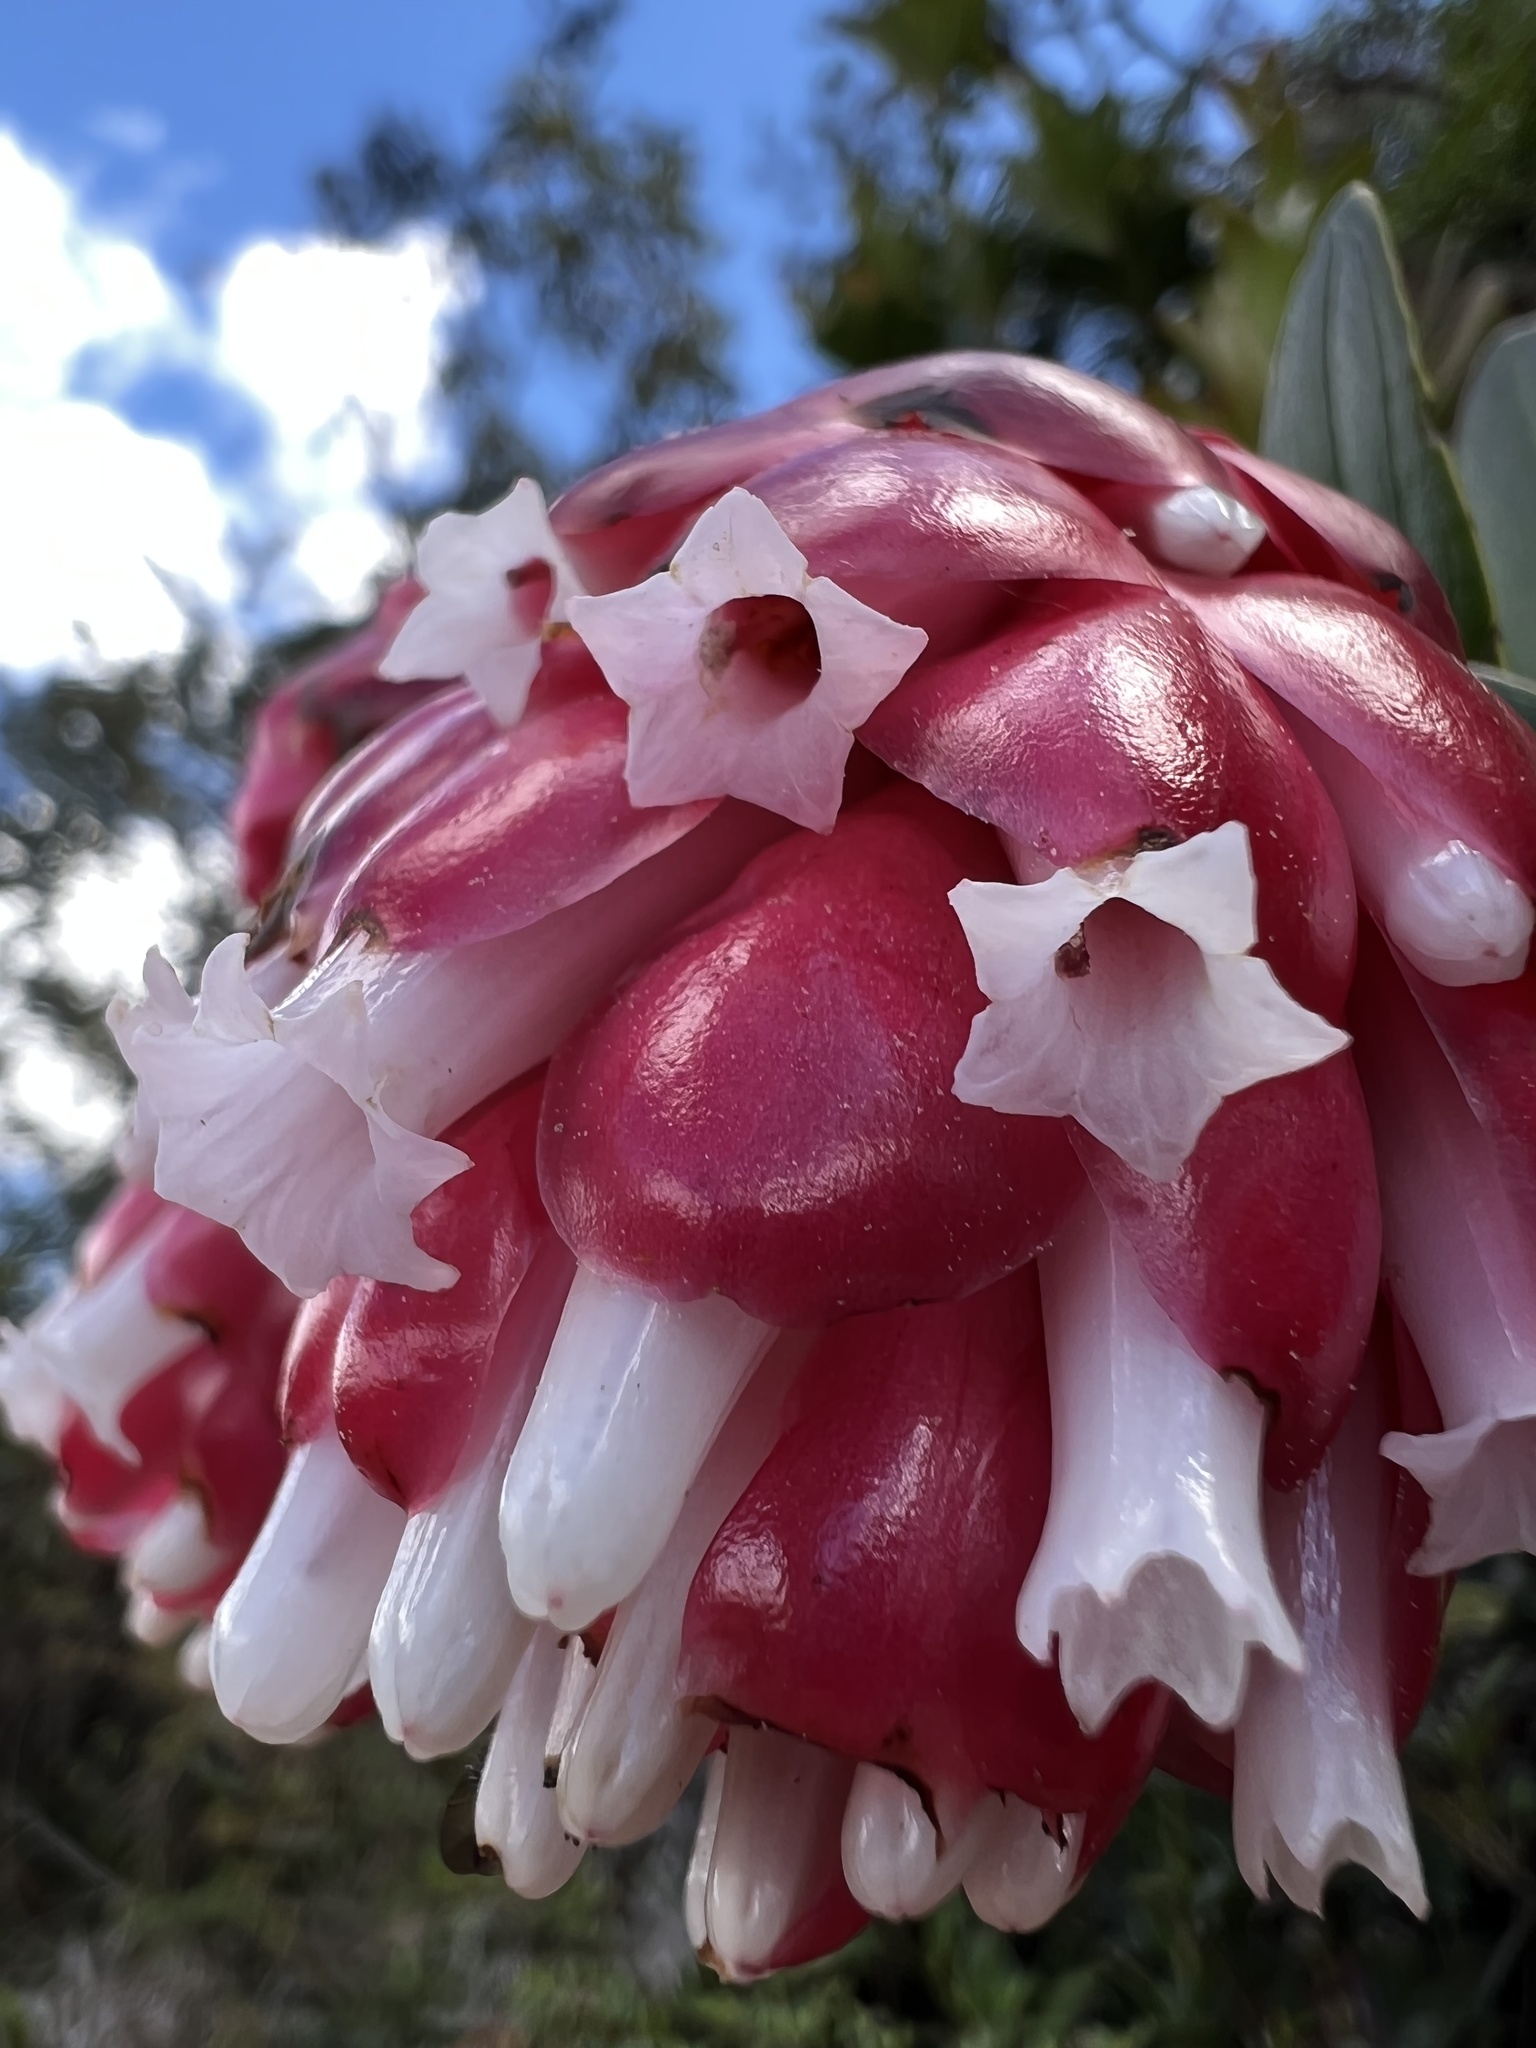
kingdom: Plantae
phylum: Tracheophyta
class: Magnoliopsida
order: Ericales
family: Ericaceae
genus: Cavendishia
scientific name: Cavendishia nitida
